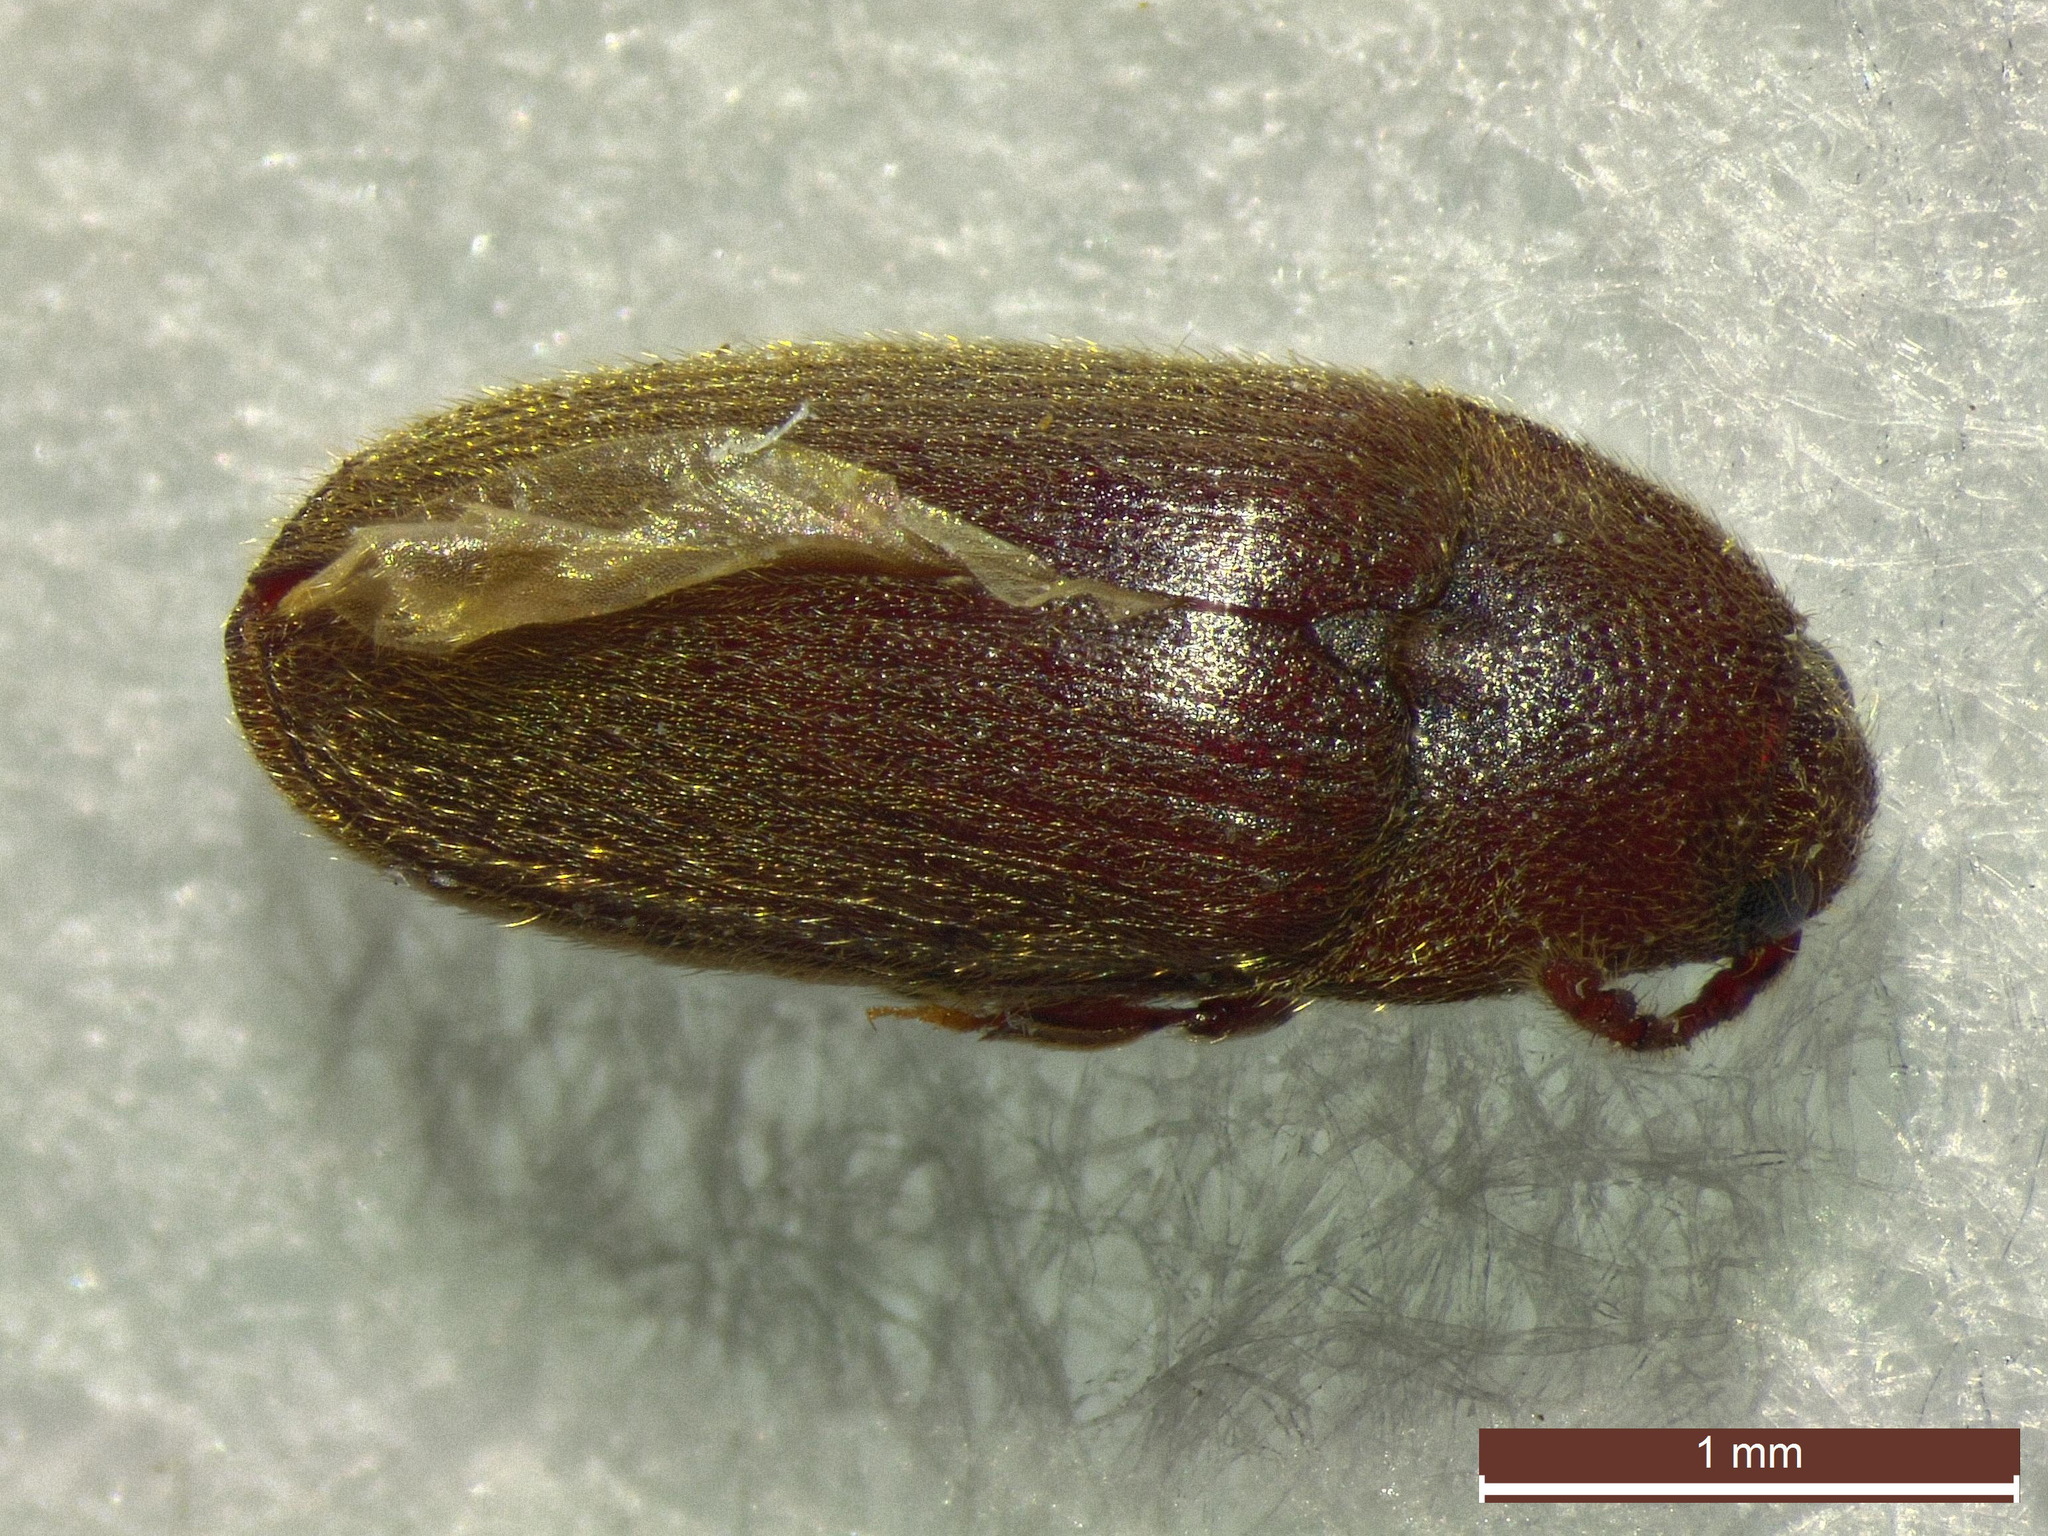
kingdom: Animalia
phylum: Arthropoda
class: Insecta
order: Coleoptera
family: Throscidae
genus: Trixagus
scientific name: Trixagus leseigneuri
